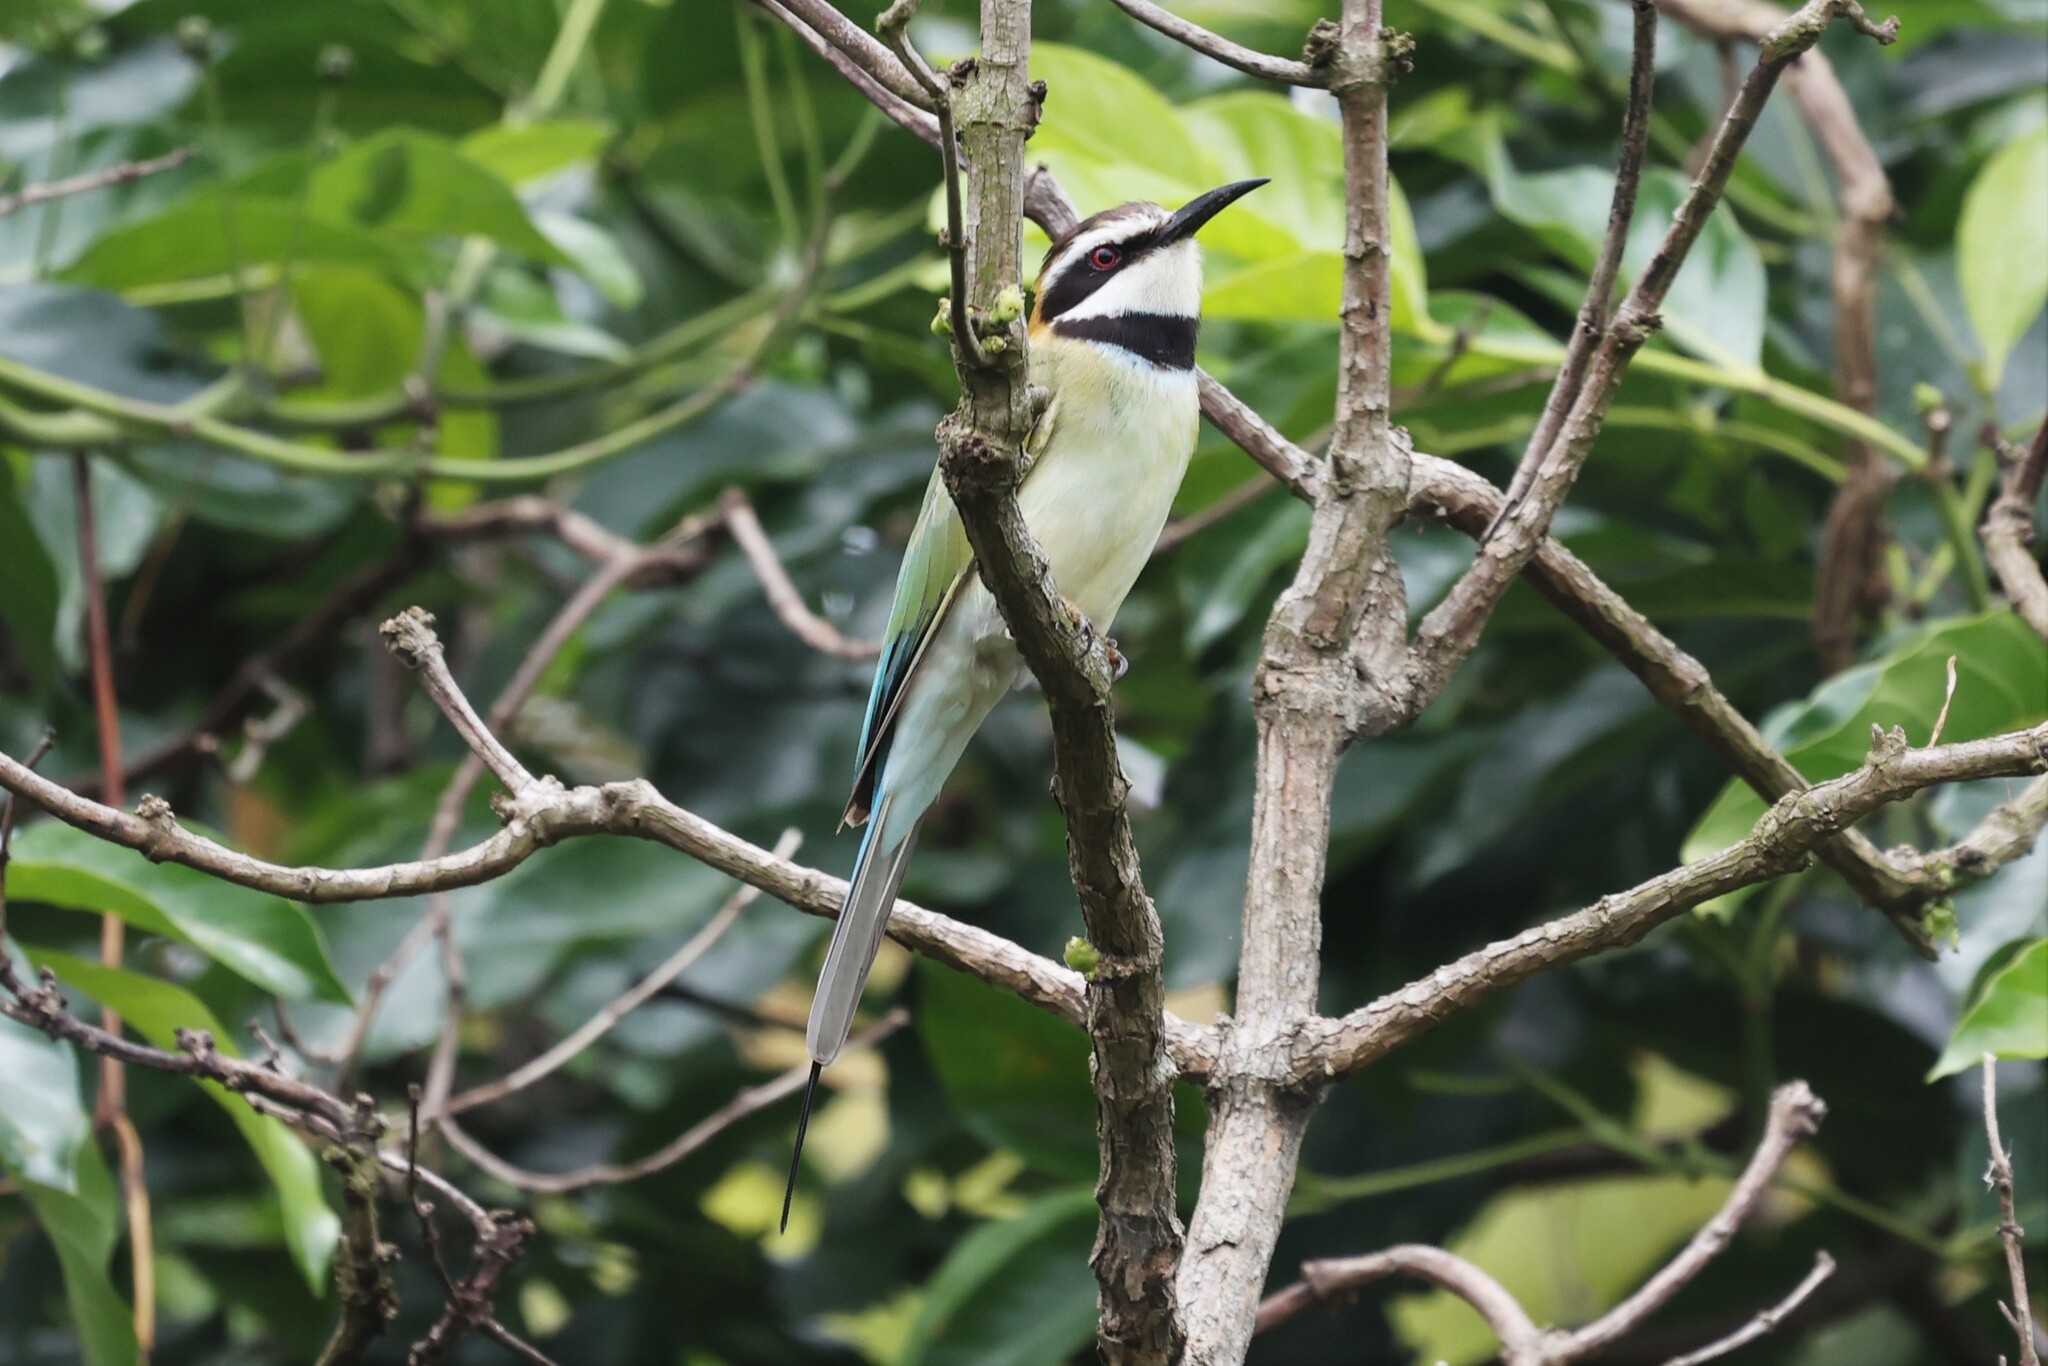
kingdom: Animalia
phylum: Chordata
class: Aves
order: Coraciiformes
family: Meropidae
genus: Merops
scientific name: Merops albicollis
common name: White-throated bee-eater
